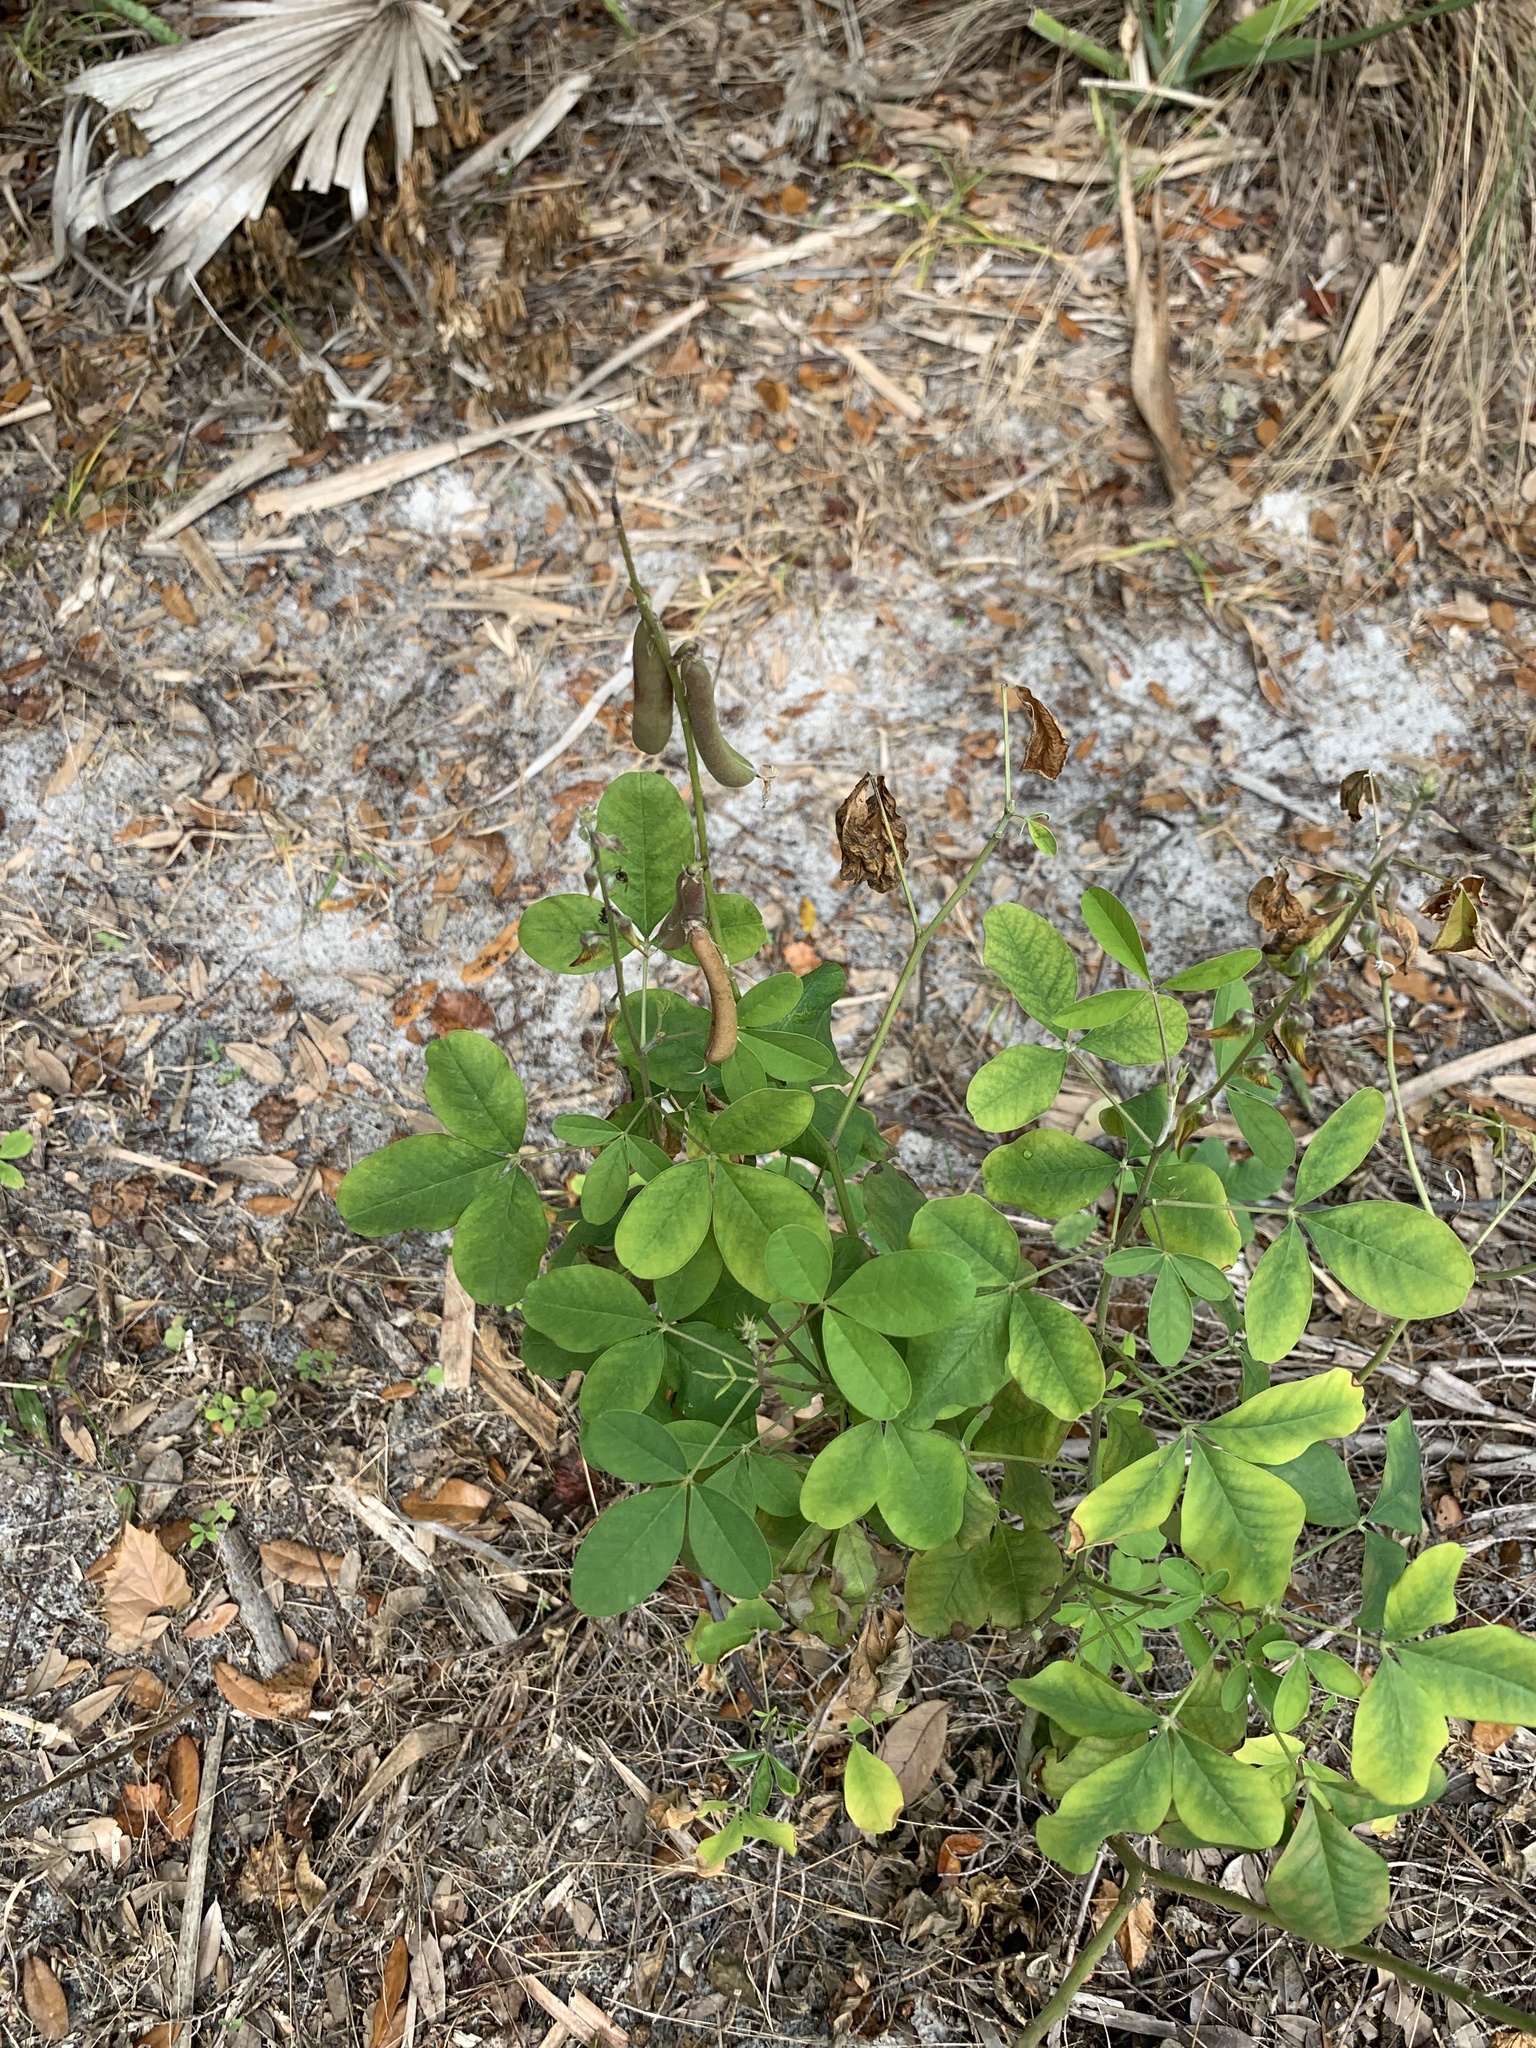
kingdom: Plantae
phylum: Tracheophyta
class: Magnoliopsida
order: Fabales
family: Fabaceae
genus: Crotalaria
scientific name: Crotalaria pallida
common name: Smooth rattlebox
